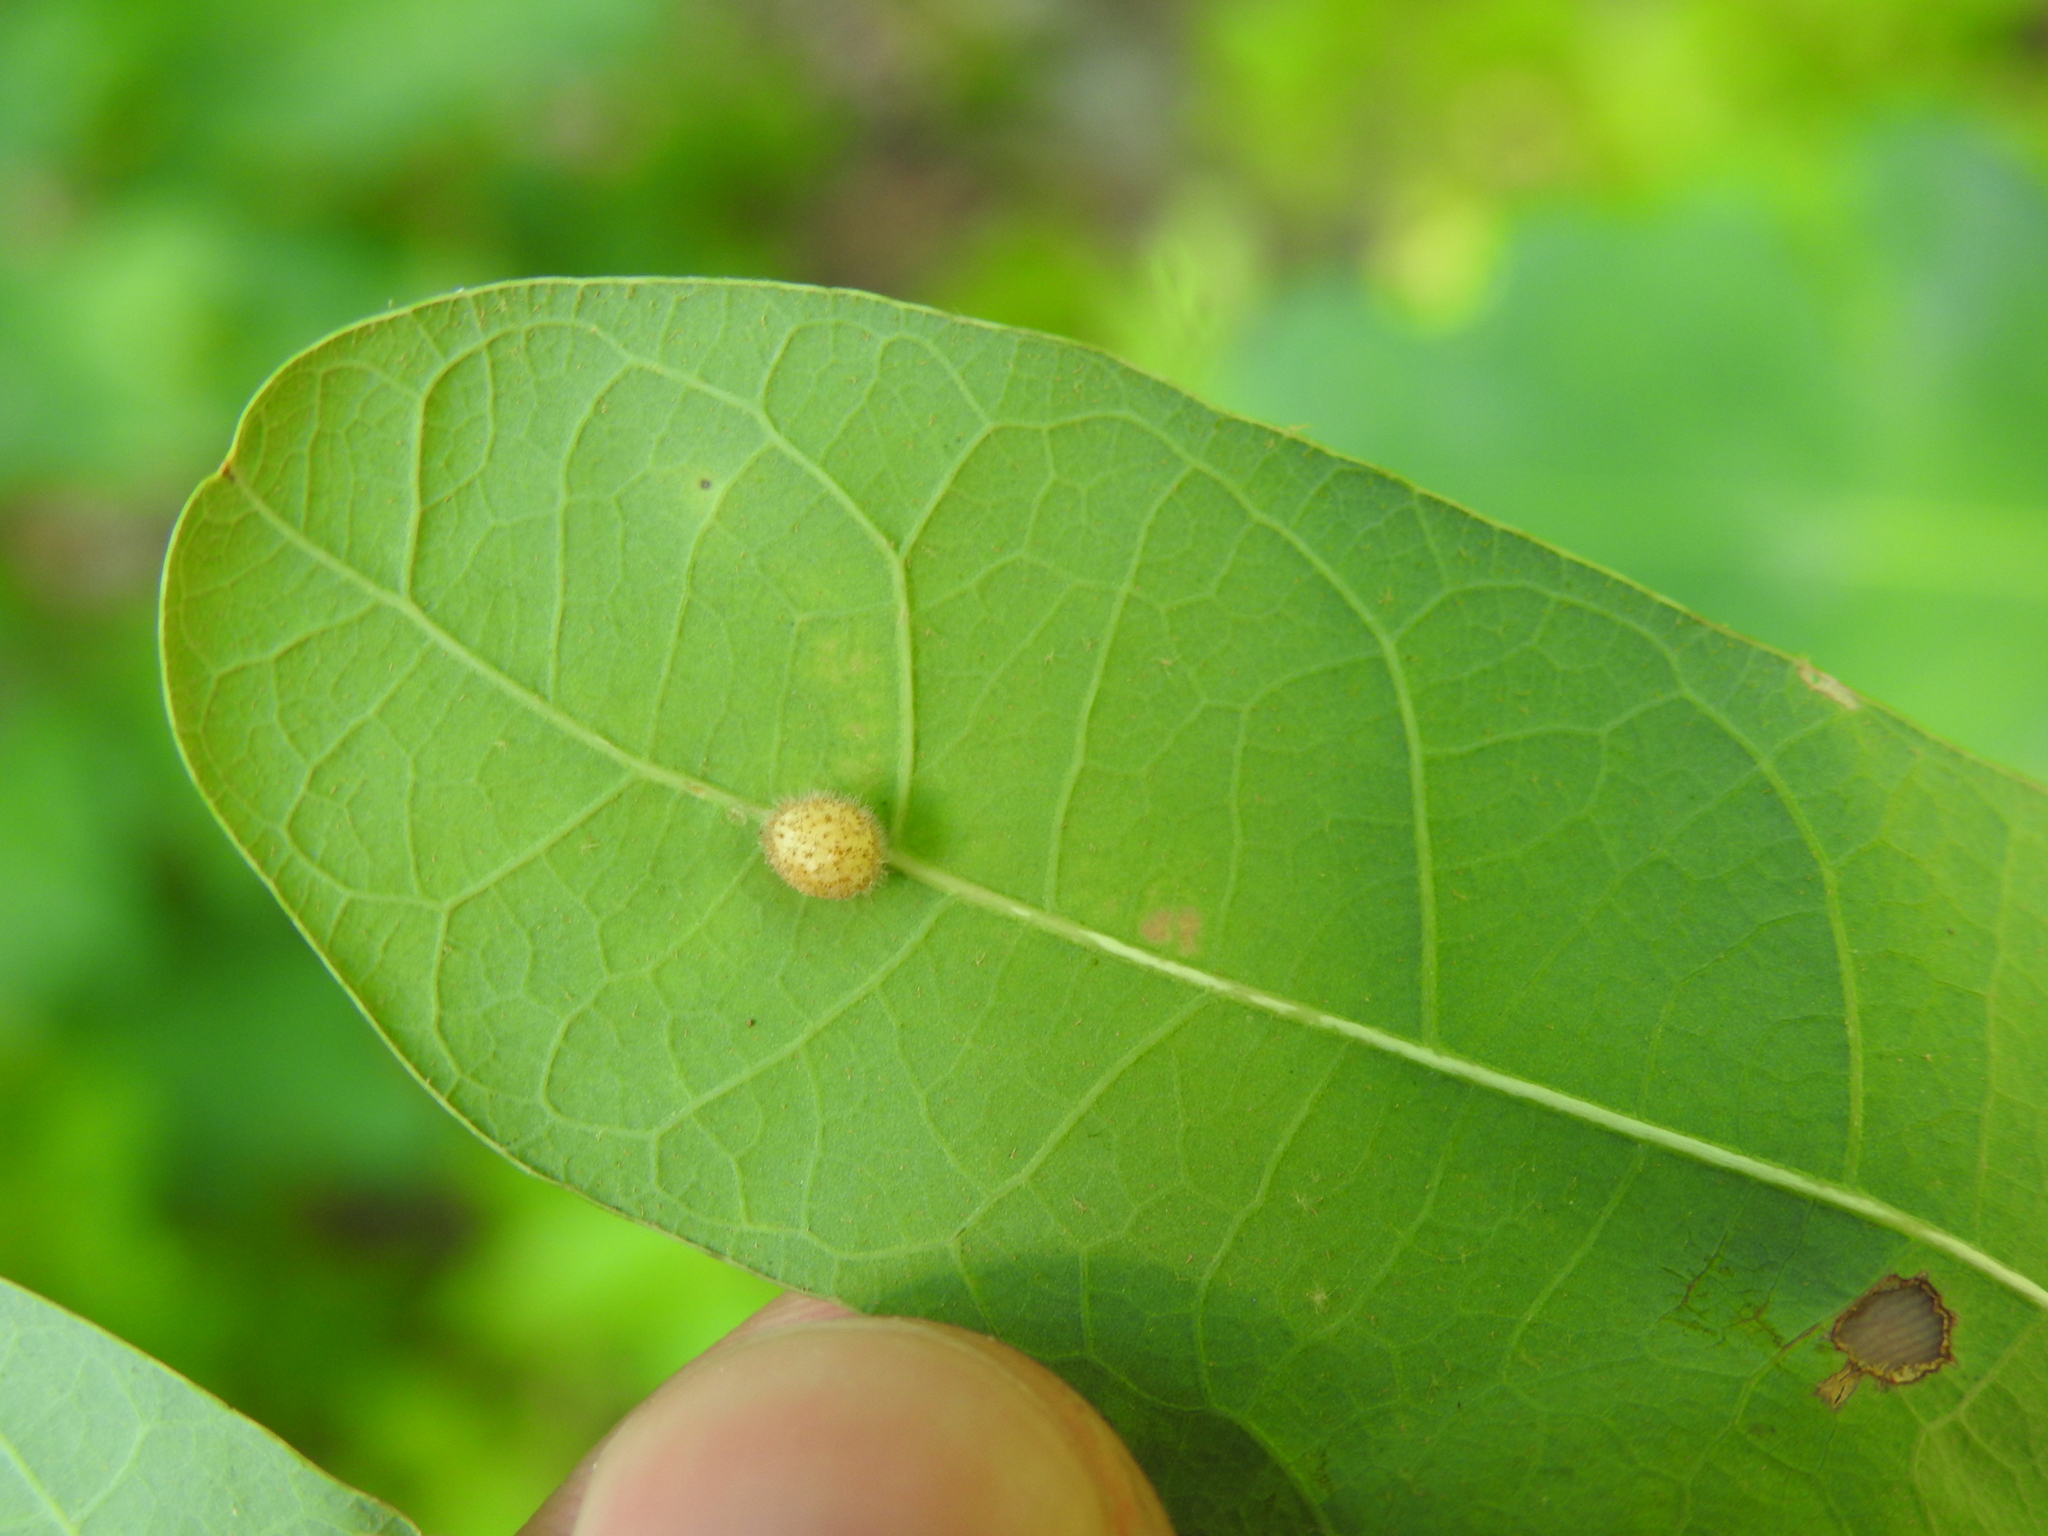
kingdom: Animalia
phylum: Arthropoda
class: Insecta
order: Hymenoptera
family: Cynipidae
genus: Philonix
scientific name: Philonix fulvicollis
